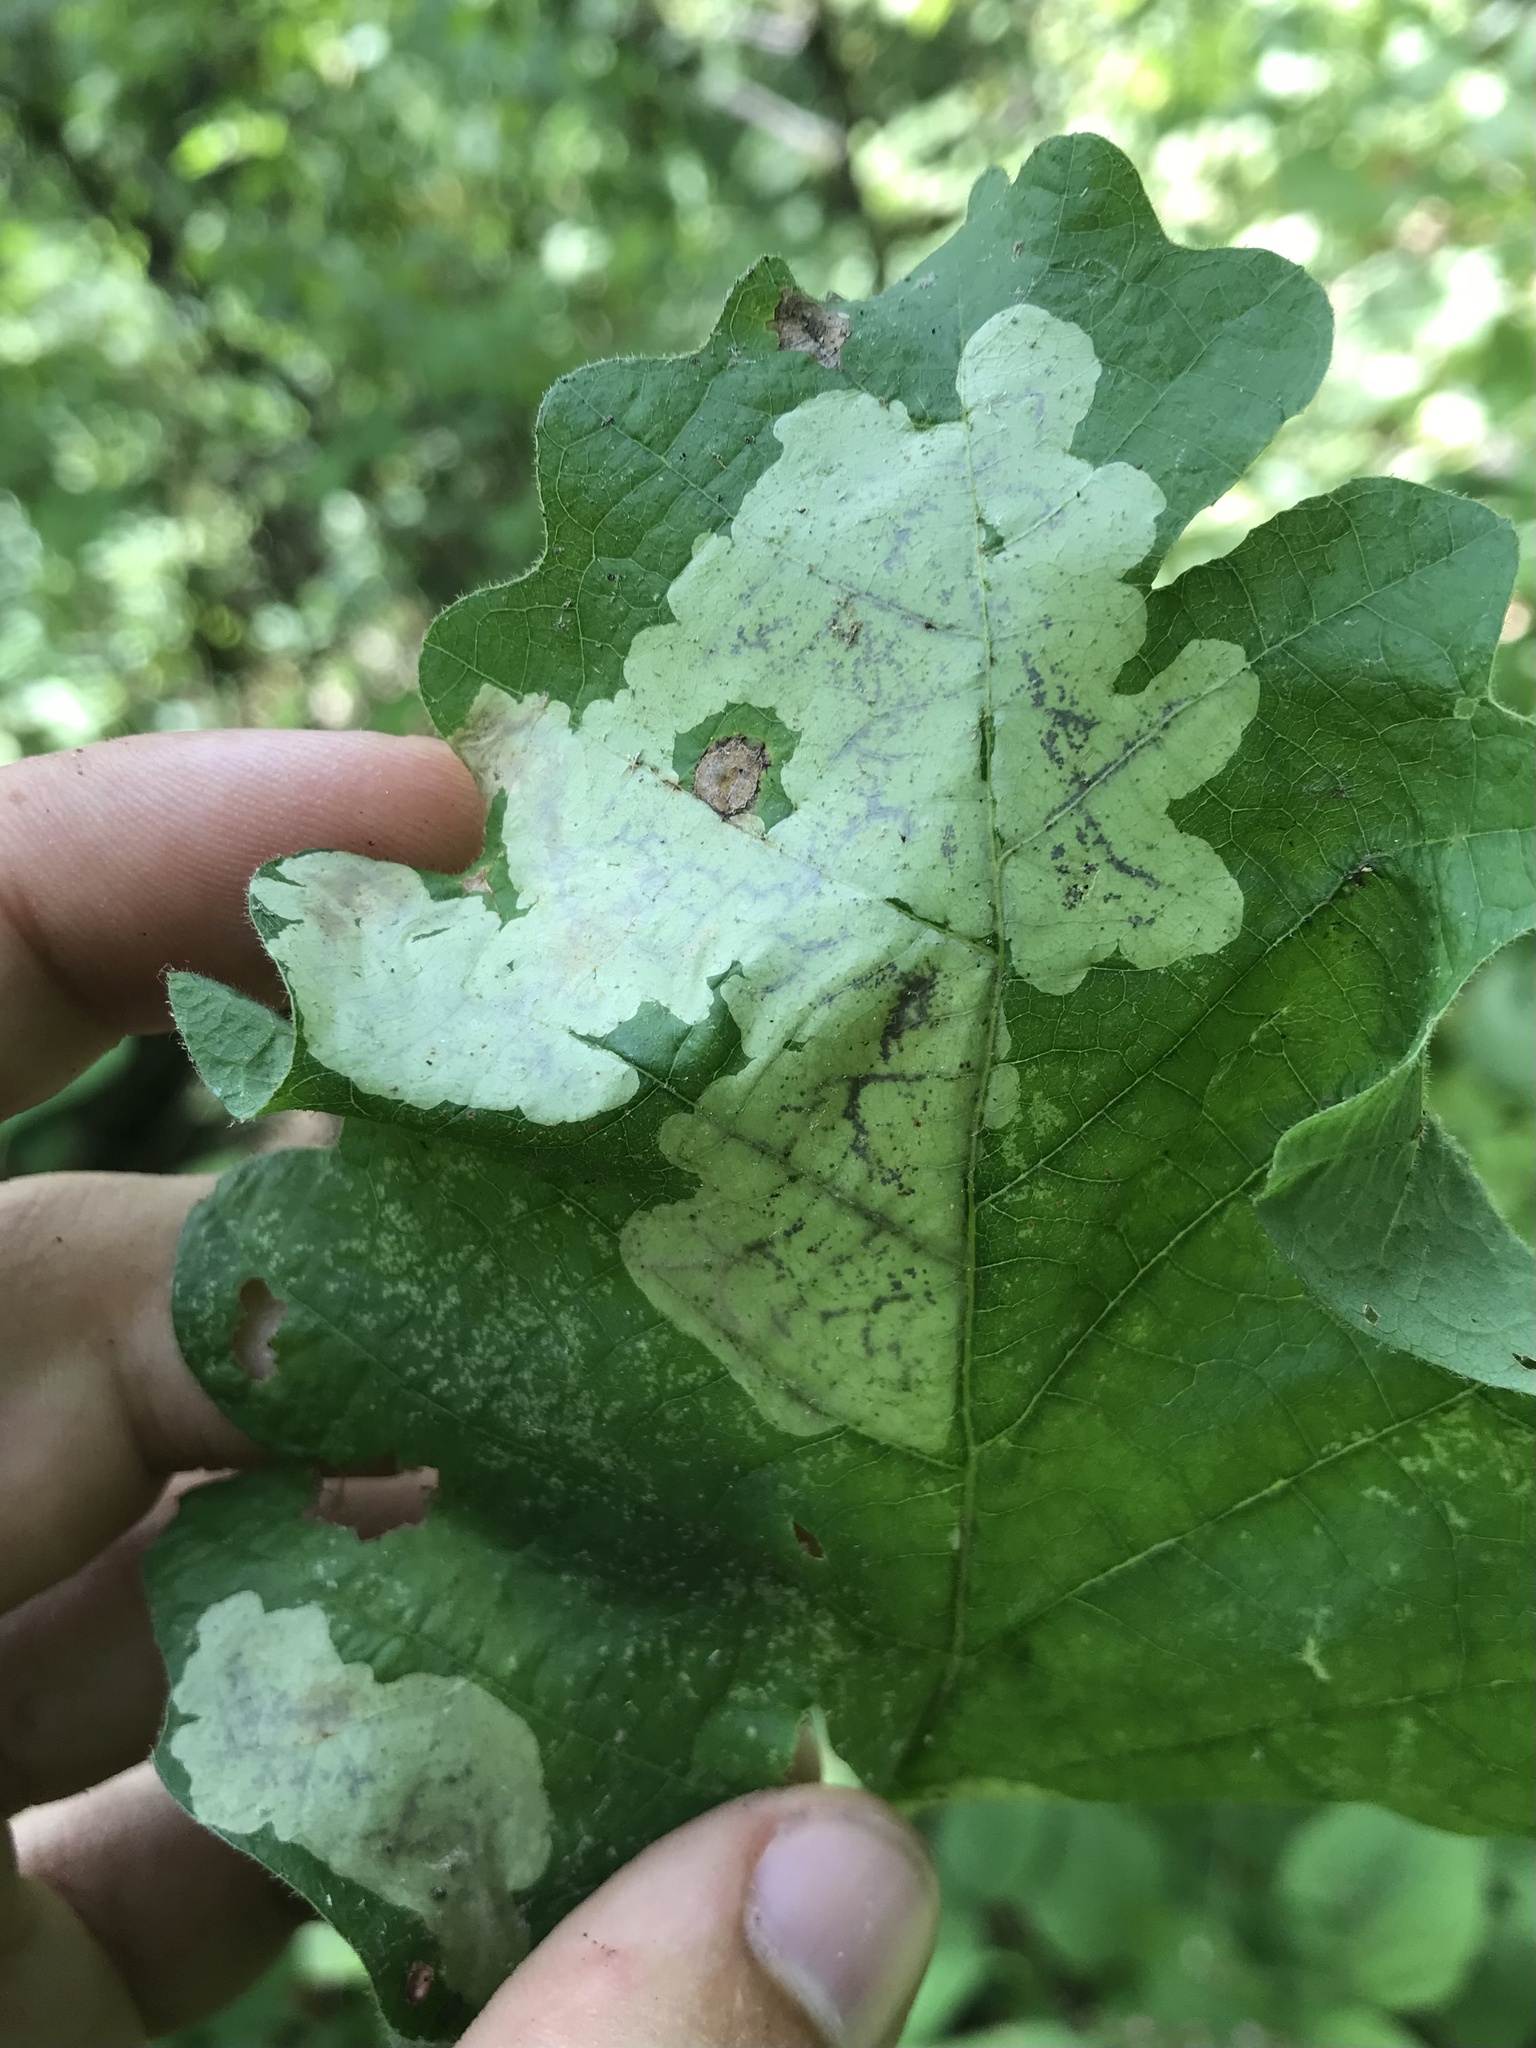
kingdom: Animalia
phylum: Arthropoda
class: Insecta
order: Lepidoptera
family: Gracillariidae
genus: Cameraria
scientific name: Cameraria obstrictella
